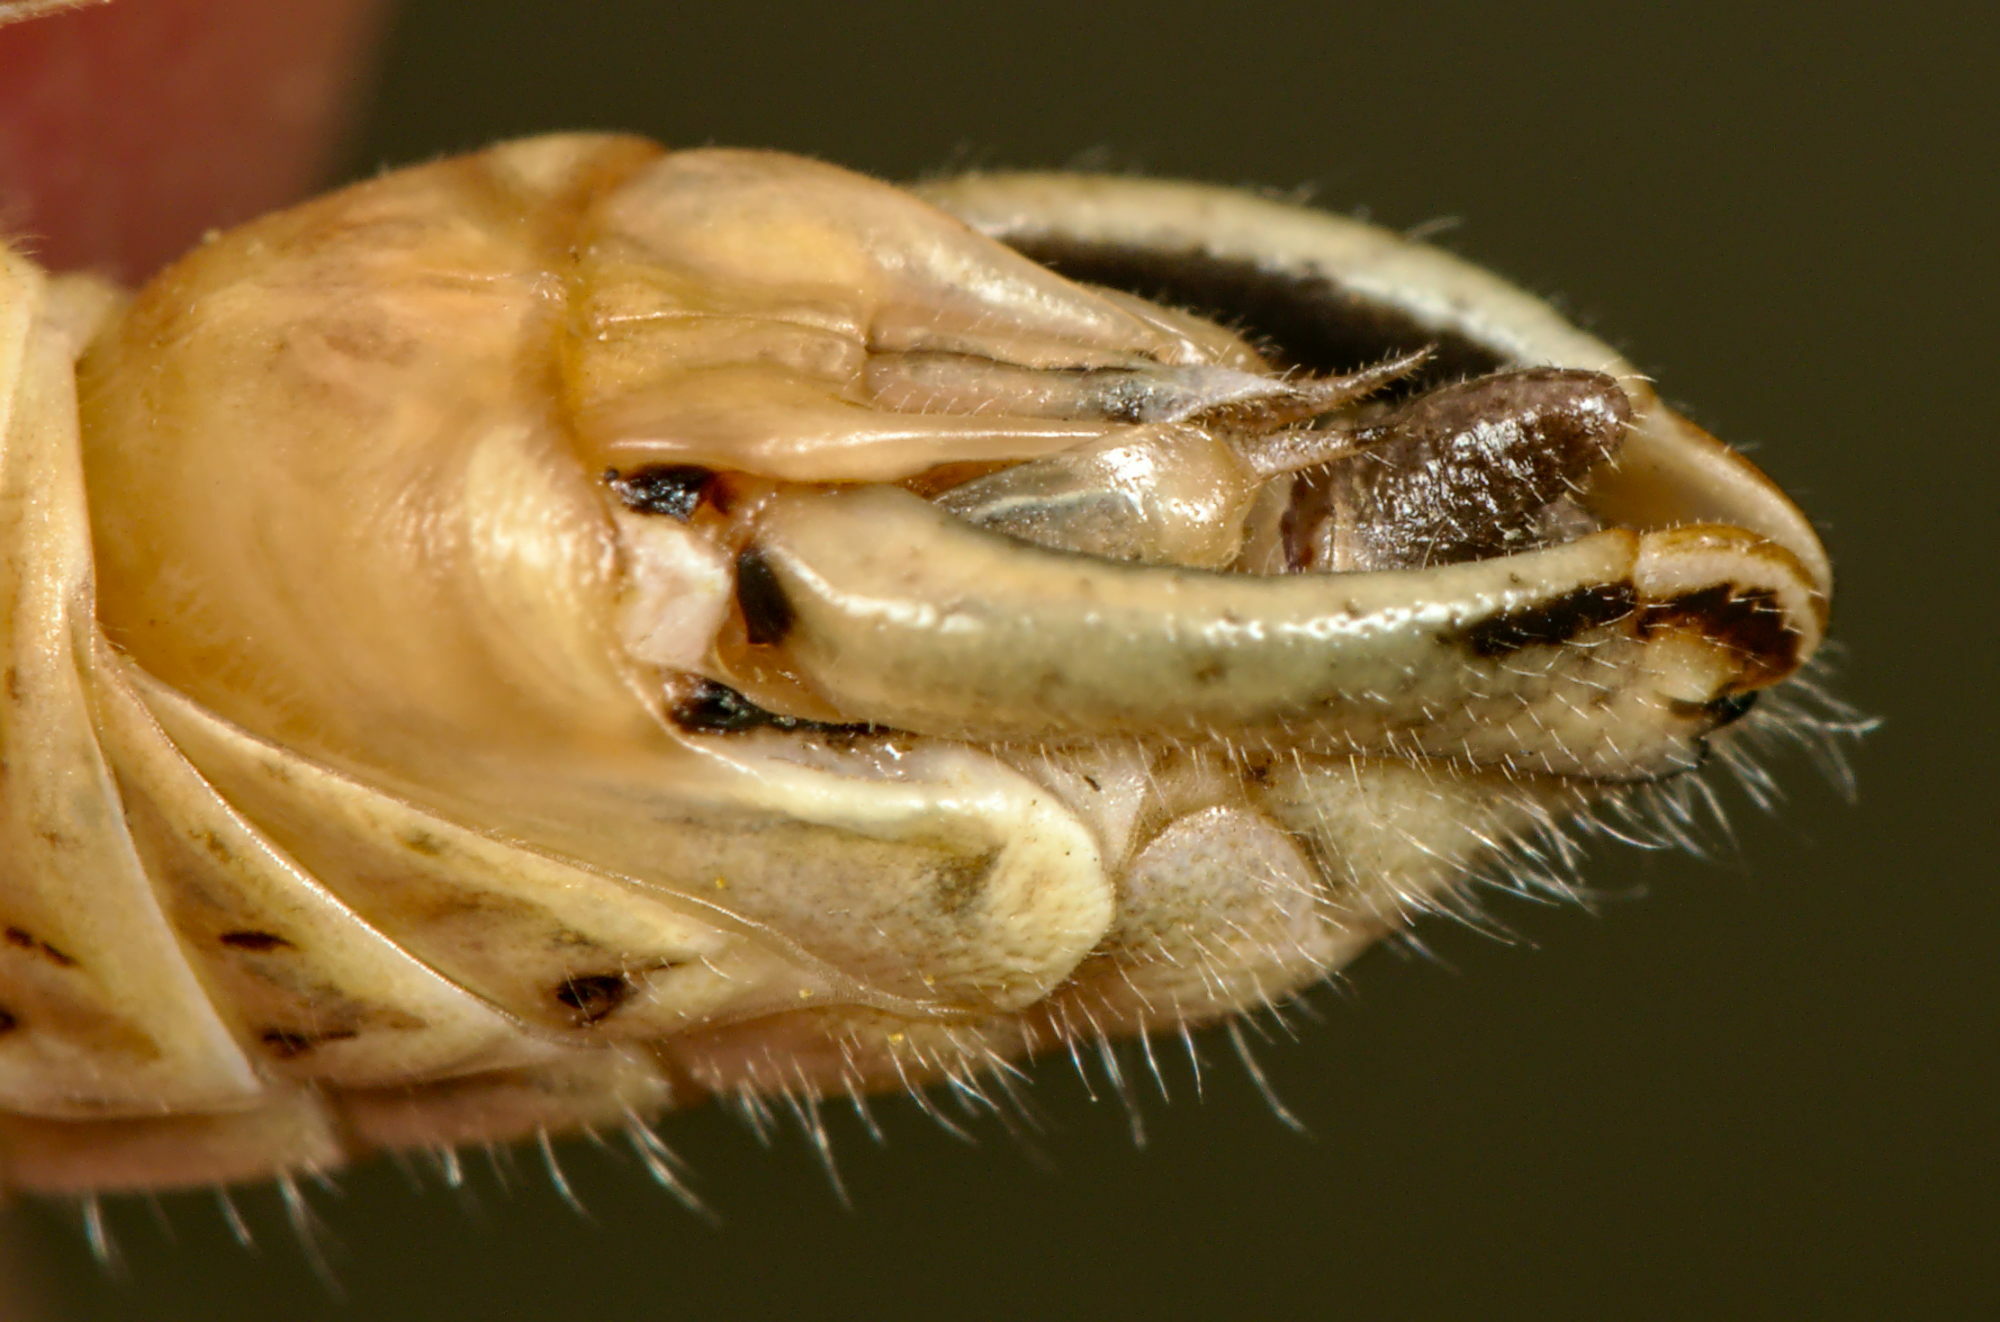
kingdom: Animalia
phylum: Arthropoda
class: Insecta
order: Orthoptera
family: Acrididae
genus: Calliptamus
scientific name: Calliptamus italicus
